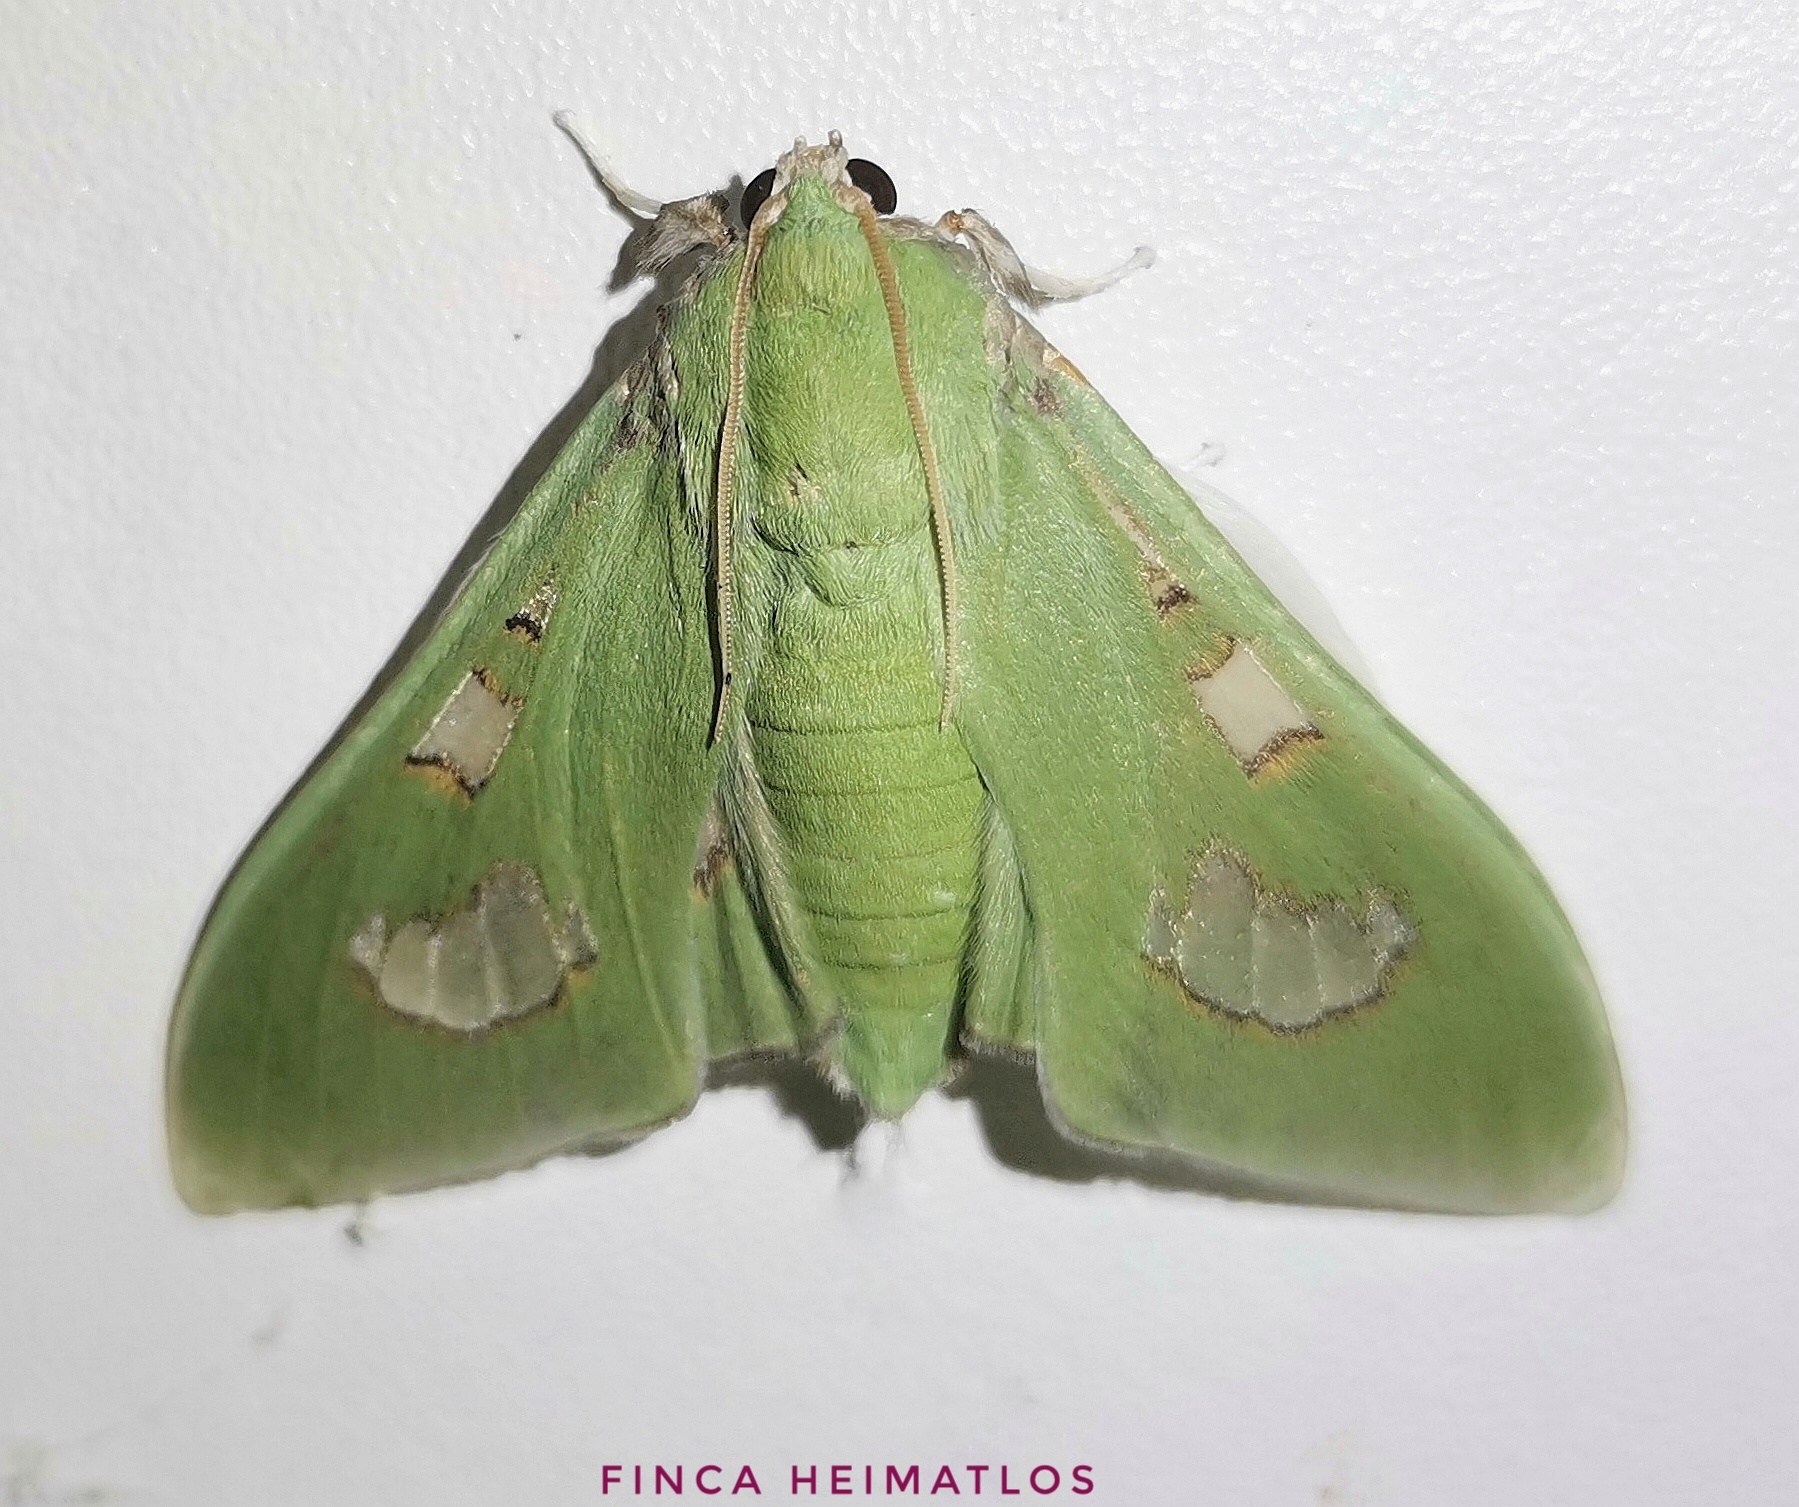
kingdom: Animalia
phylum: Arthropoda
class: Insecta
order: Lepidoptera
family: Crambidae
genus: Siga
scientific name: Siga liris
